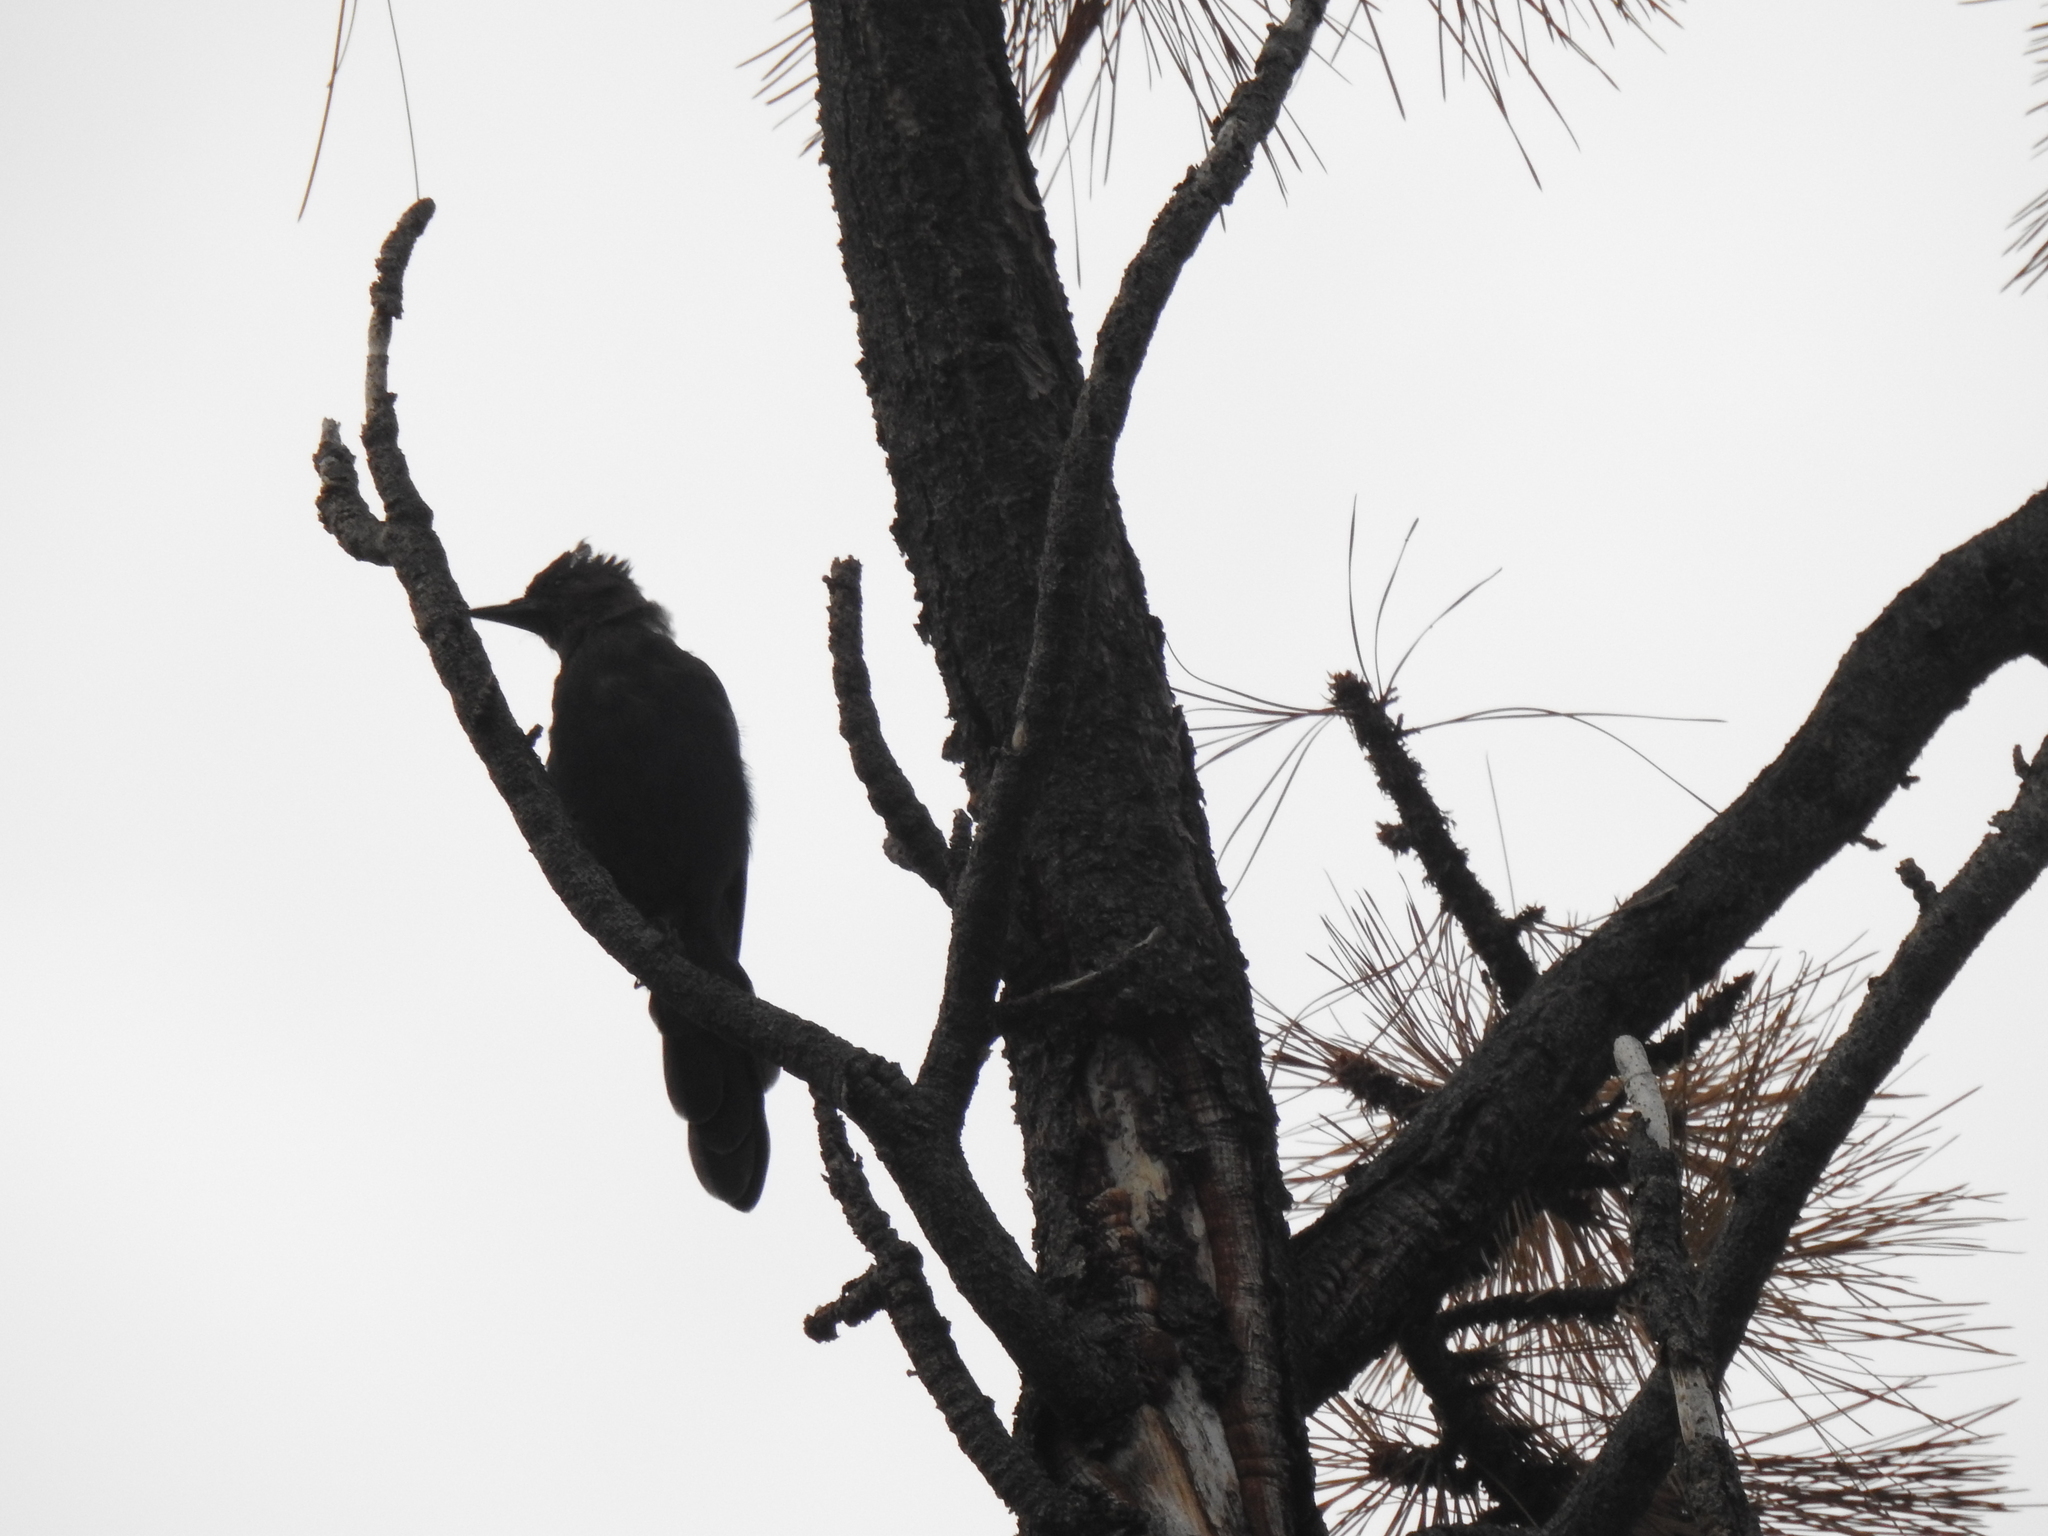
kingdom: Animalia
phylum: Chordata
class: Aves
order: Passeriformes
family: Corvidae
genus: Cyanocitta
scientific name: Cyanocitta stelleri
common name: Steller's jay
